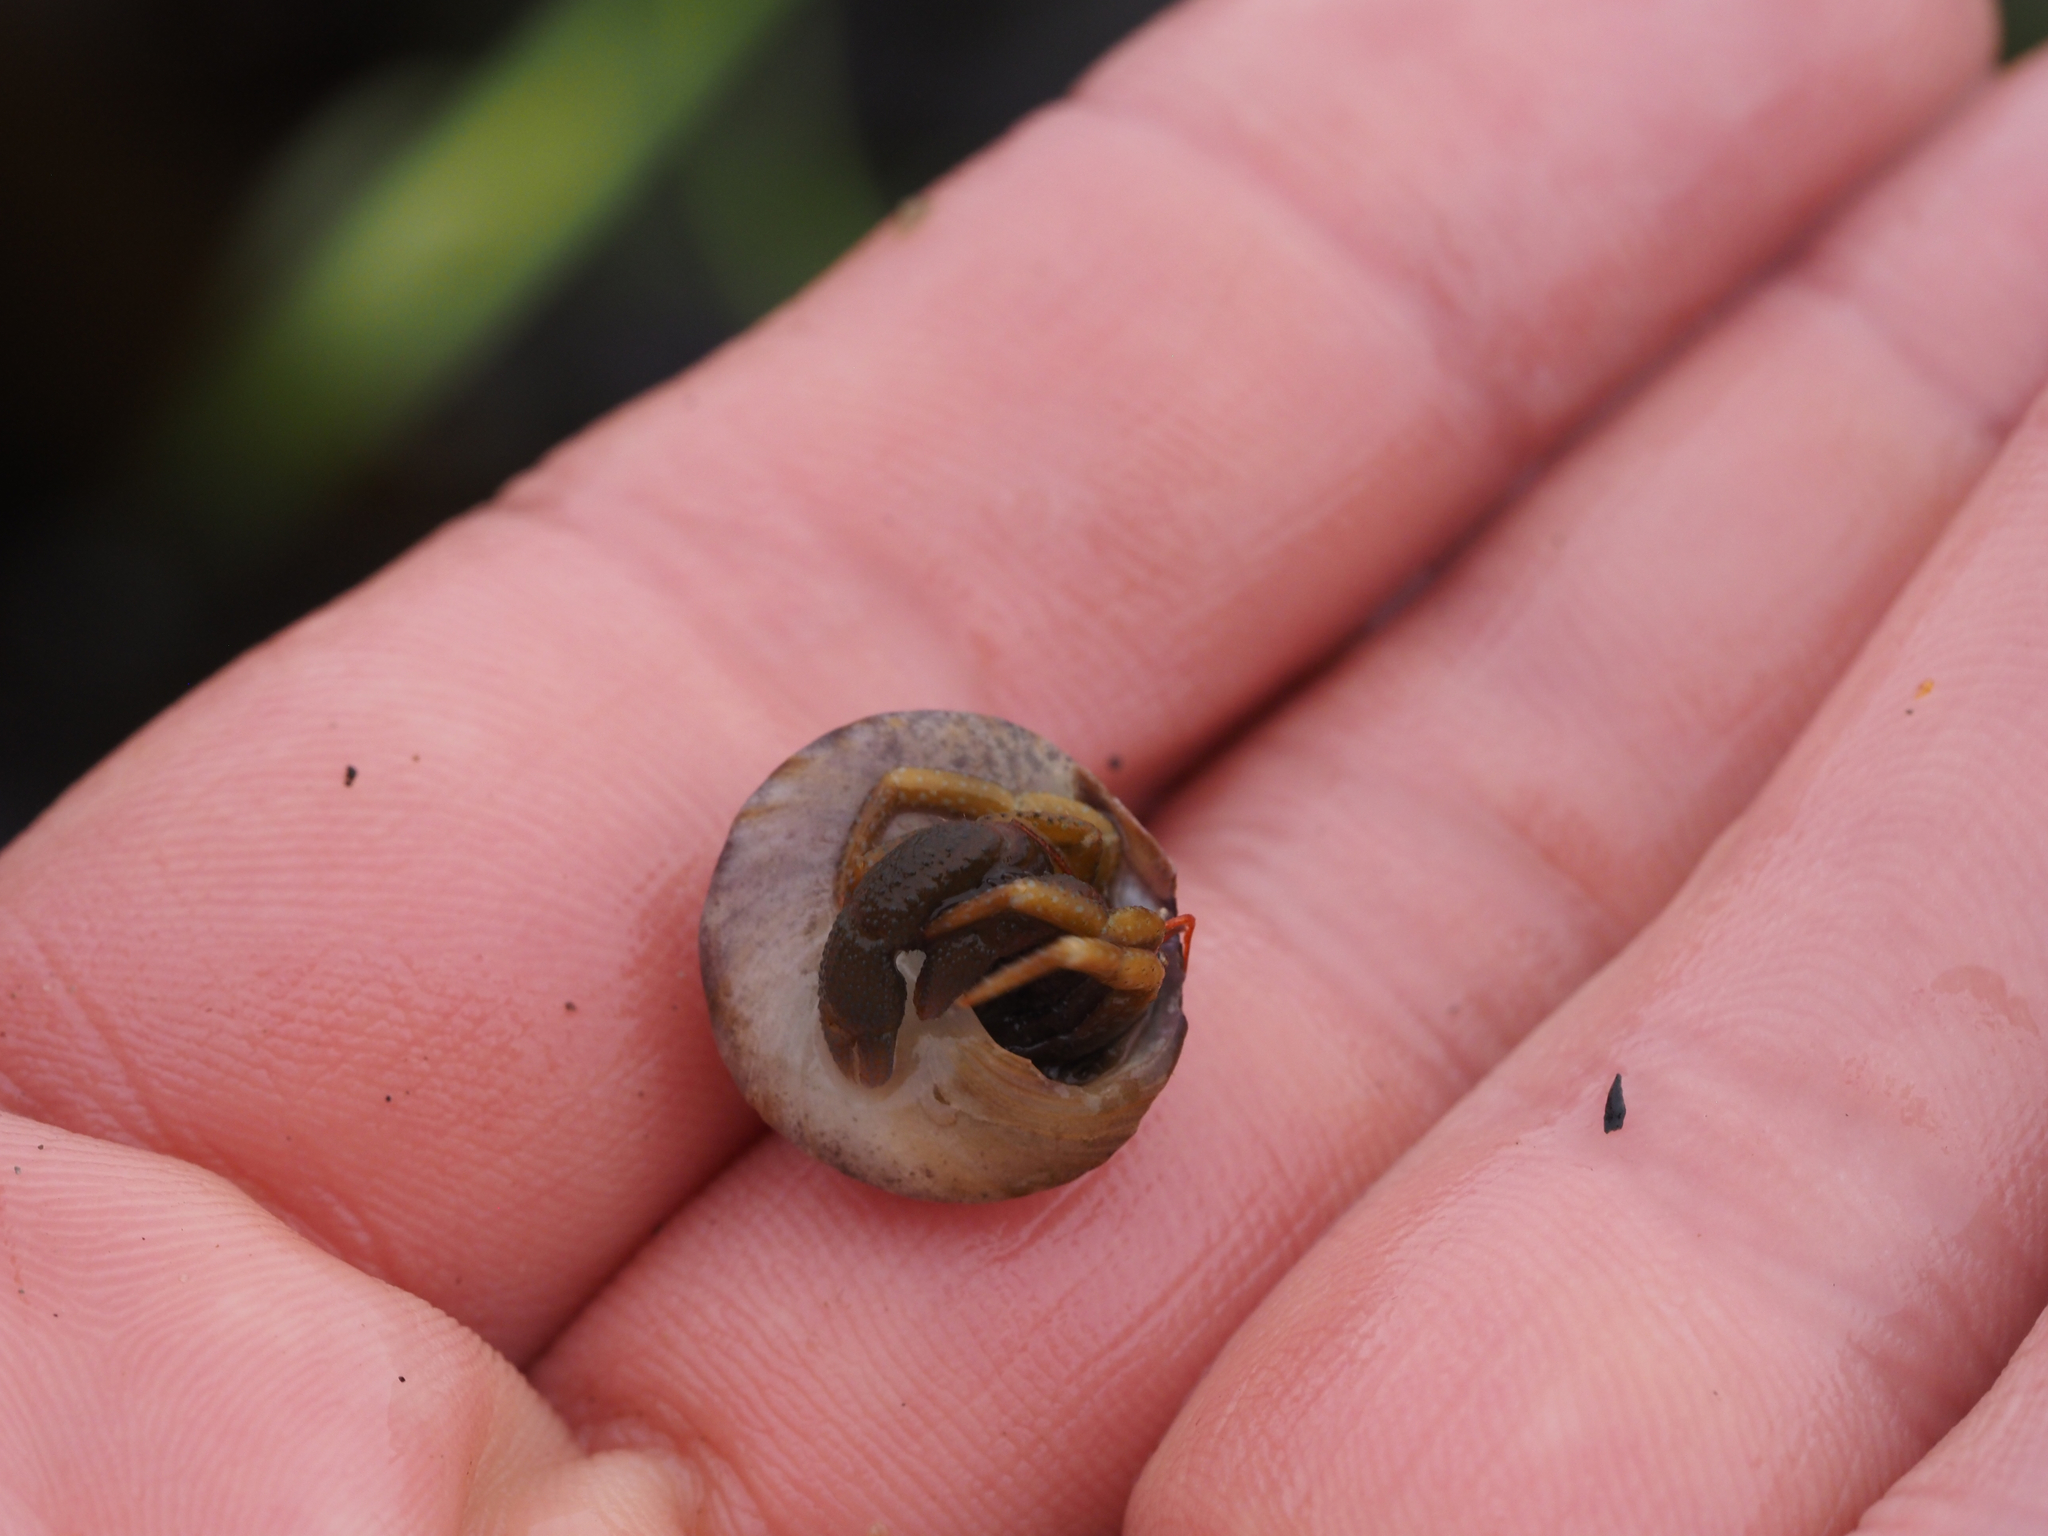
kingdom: Animalia
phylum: Arthropoda
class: Malacostraca
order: Decapoda
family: Paguridae
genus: Pagurus
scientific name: Pagurus granosimanus
